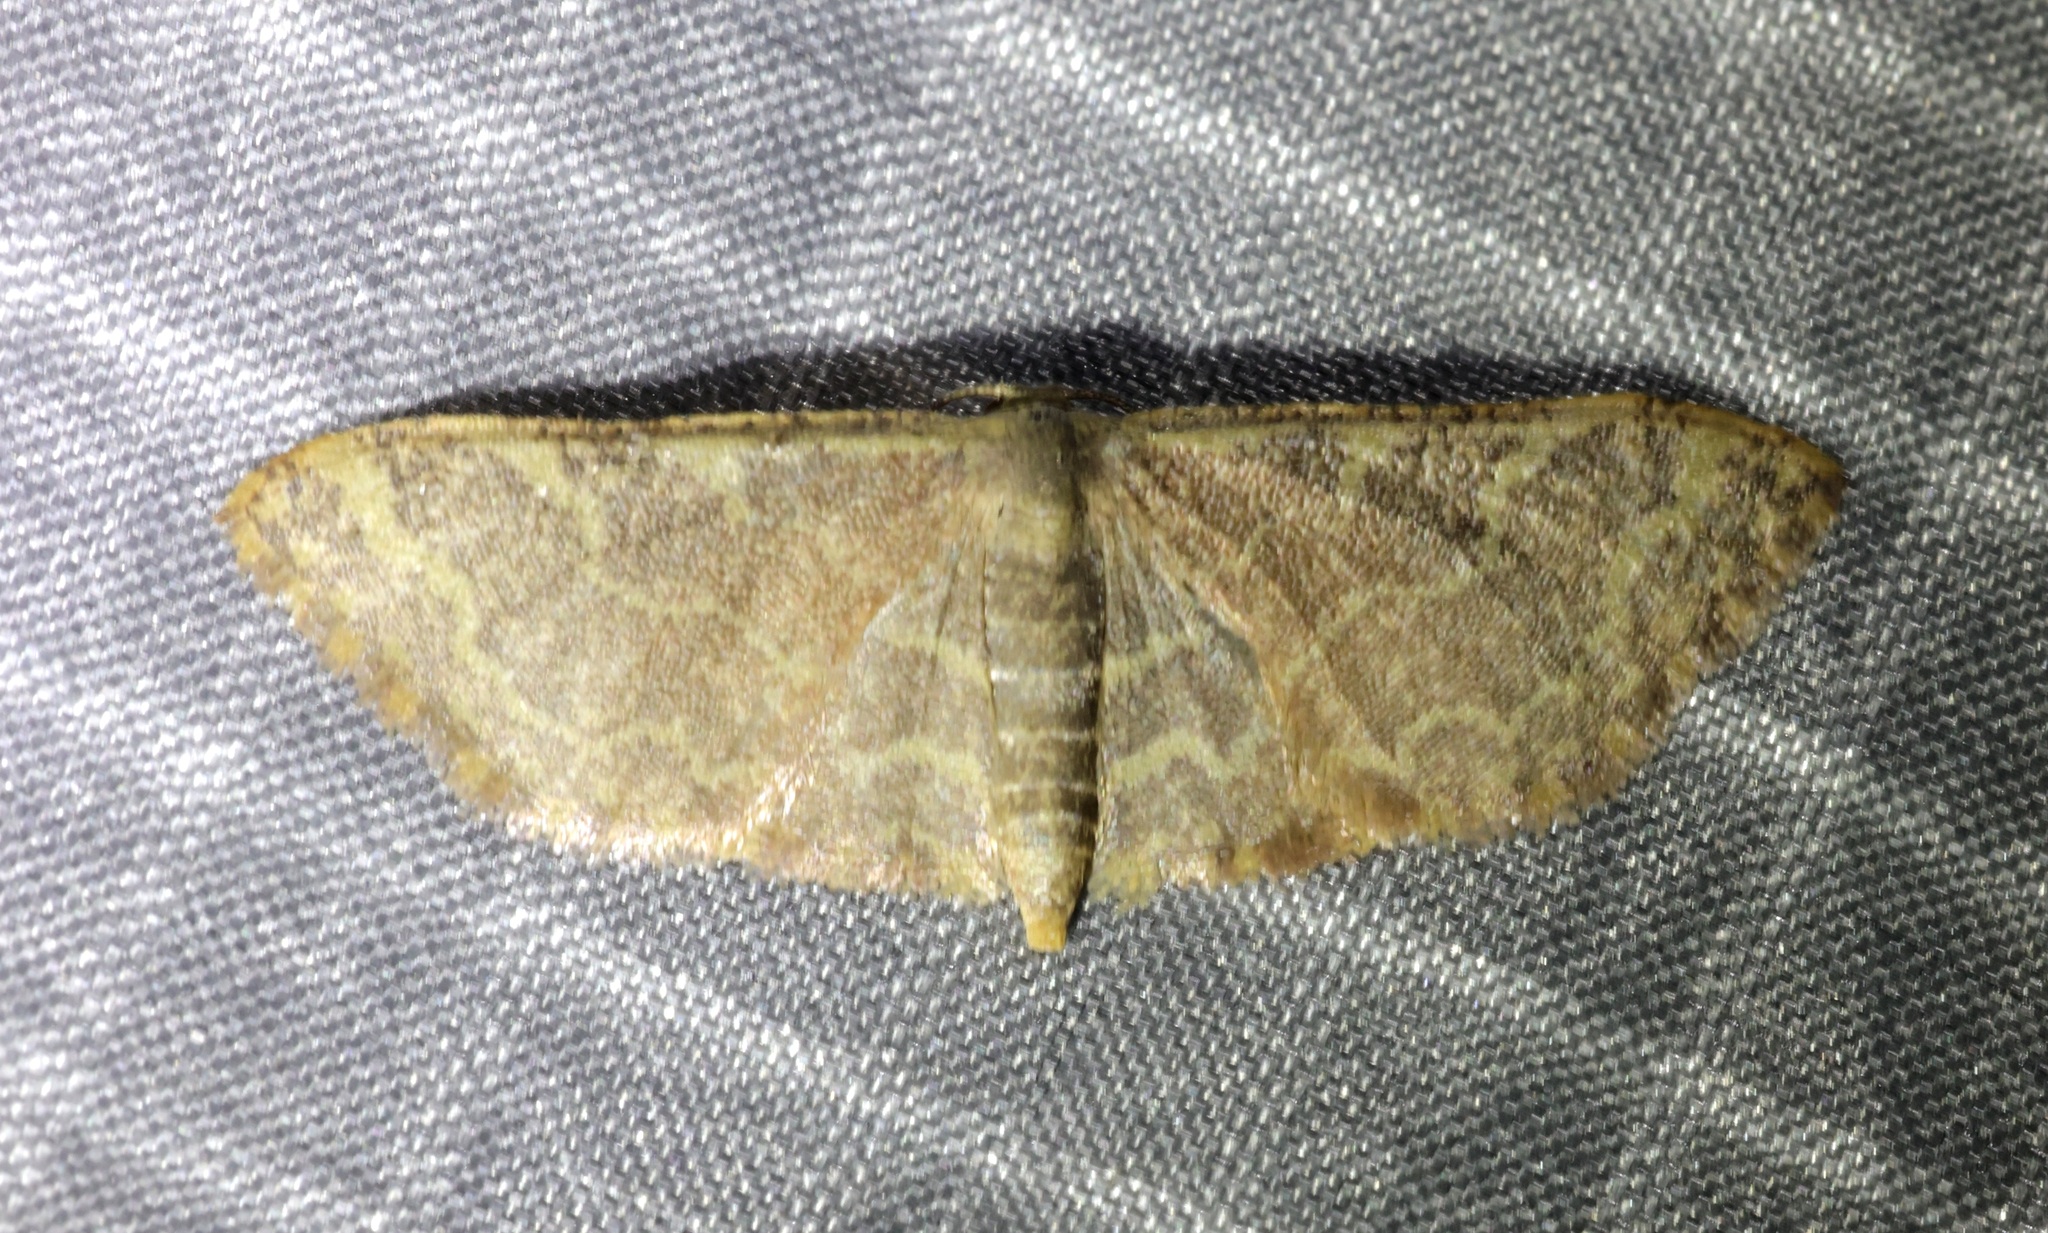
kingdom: Animalia
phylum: Arthropoda
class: Insecta
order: Lepidoptera
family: Geometridae
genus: Lophophleps
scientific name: Lophophleps purpurea
